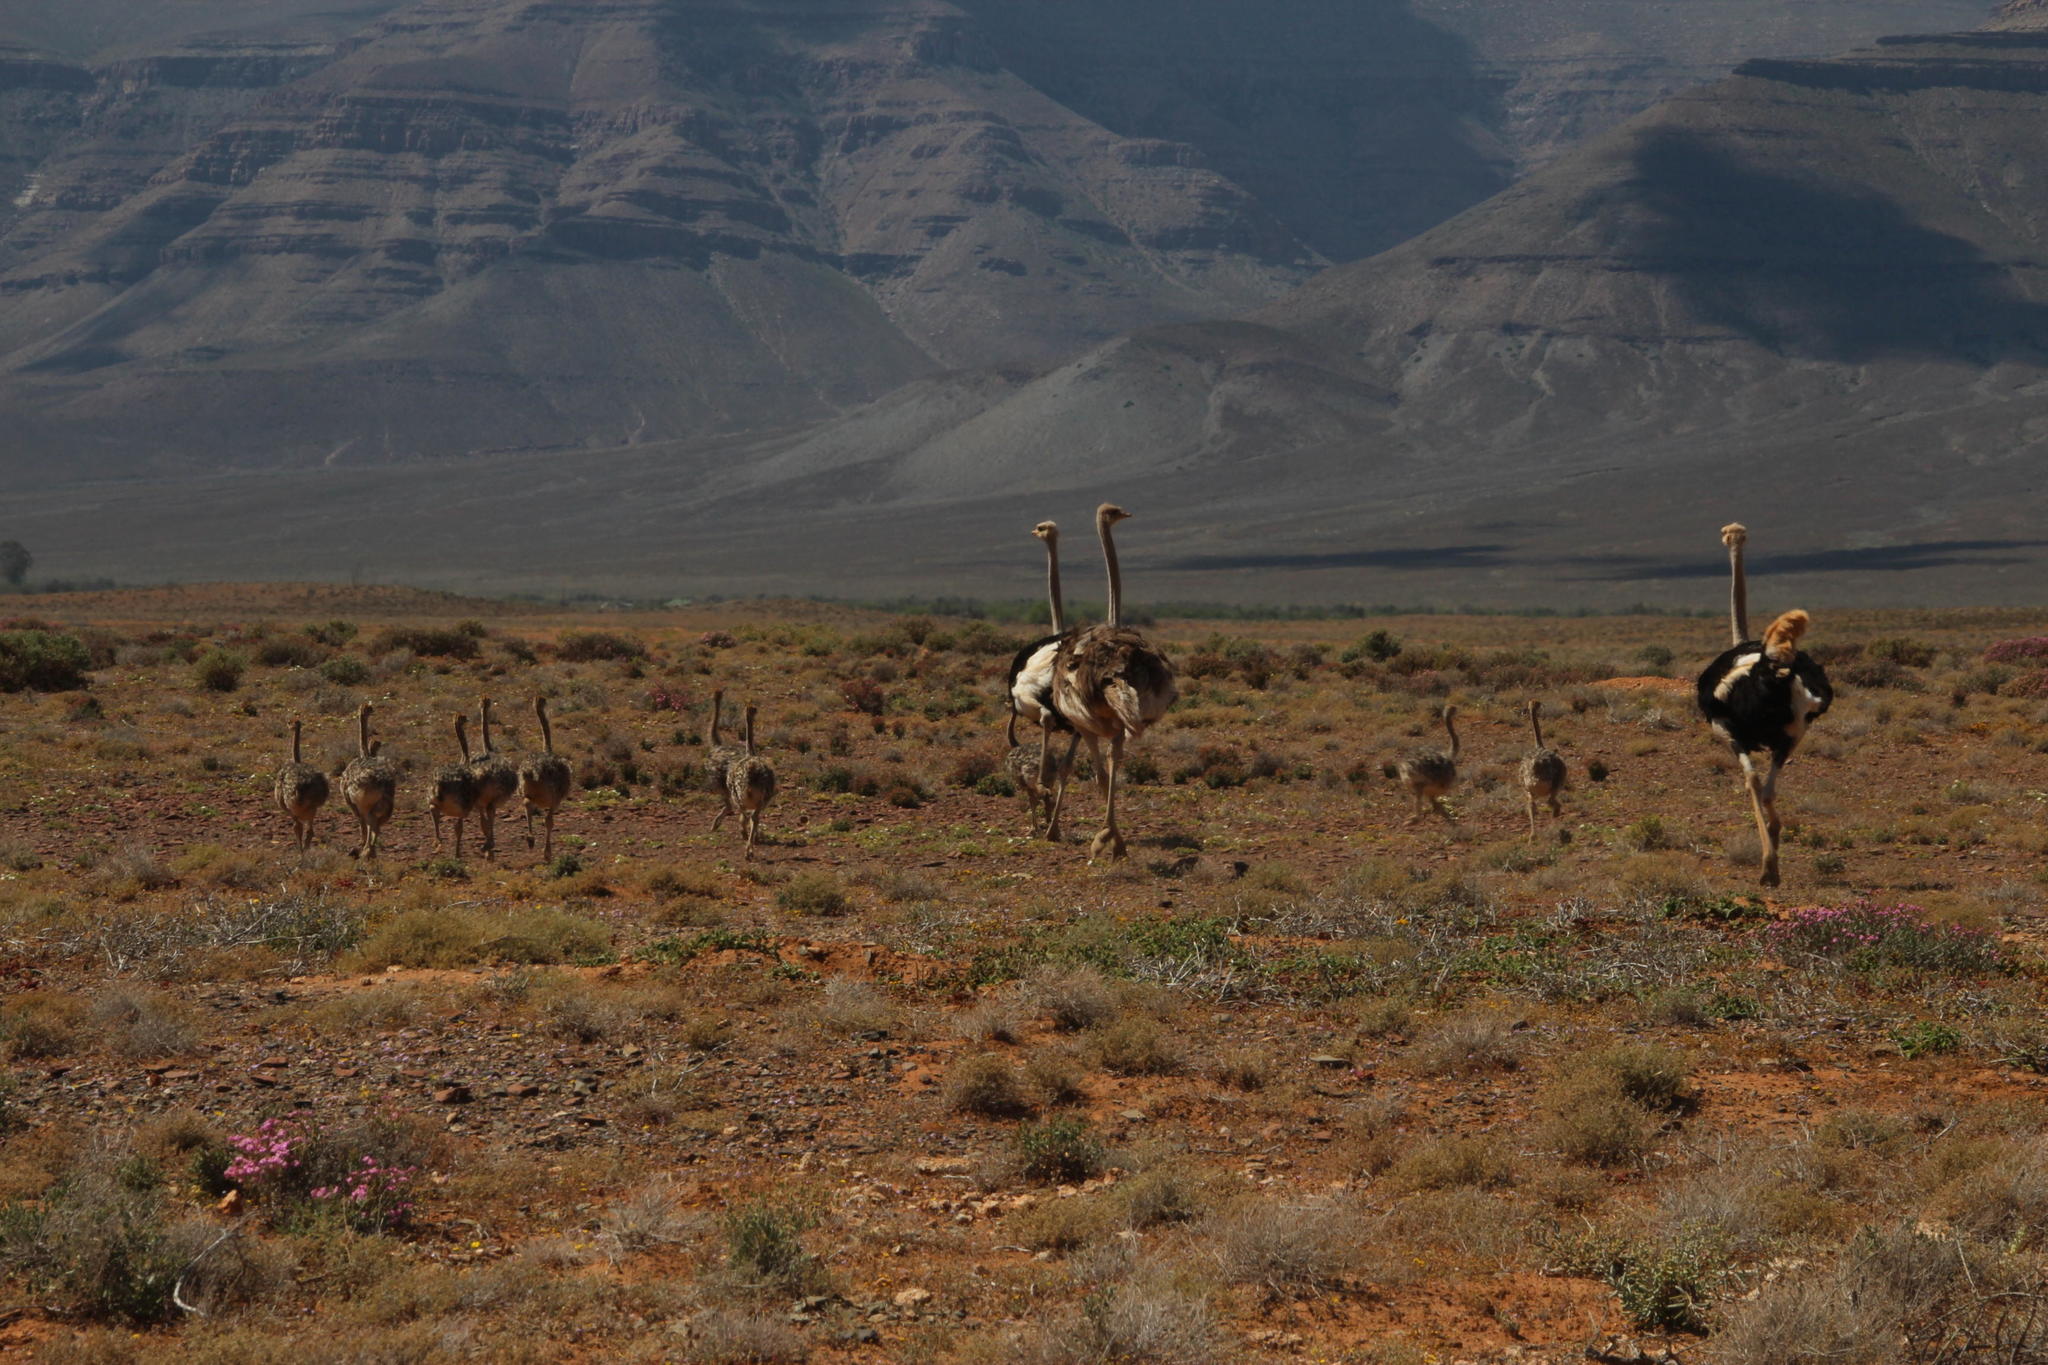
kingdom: Animalia
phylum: Chordata
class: Aves
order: Struthioniformes
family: Struthionidae
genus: Struthio
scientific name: Struthio camelus
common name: Common ostrich
